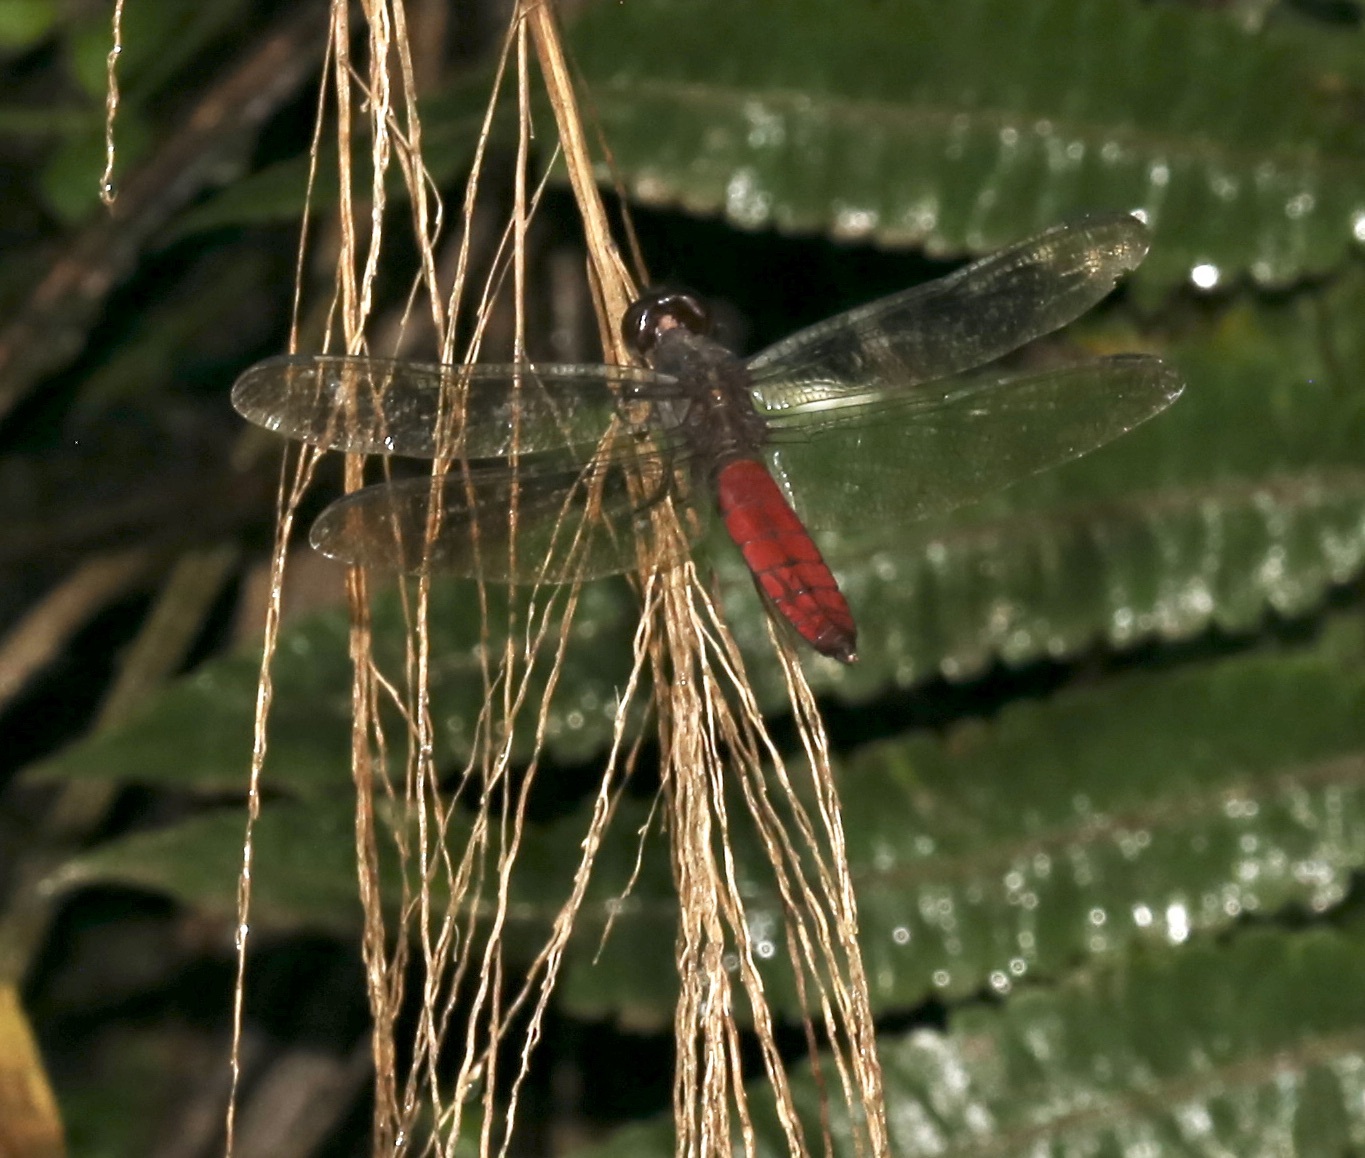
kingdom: Animalia
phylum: Arthropoda
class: Insecta
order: Odonata
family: Libellulidae
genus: Libellula
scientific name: Libellula herculea
